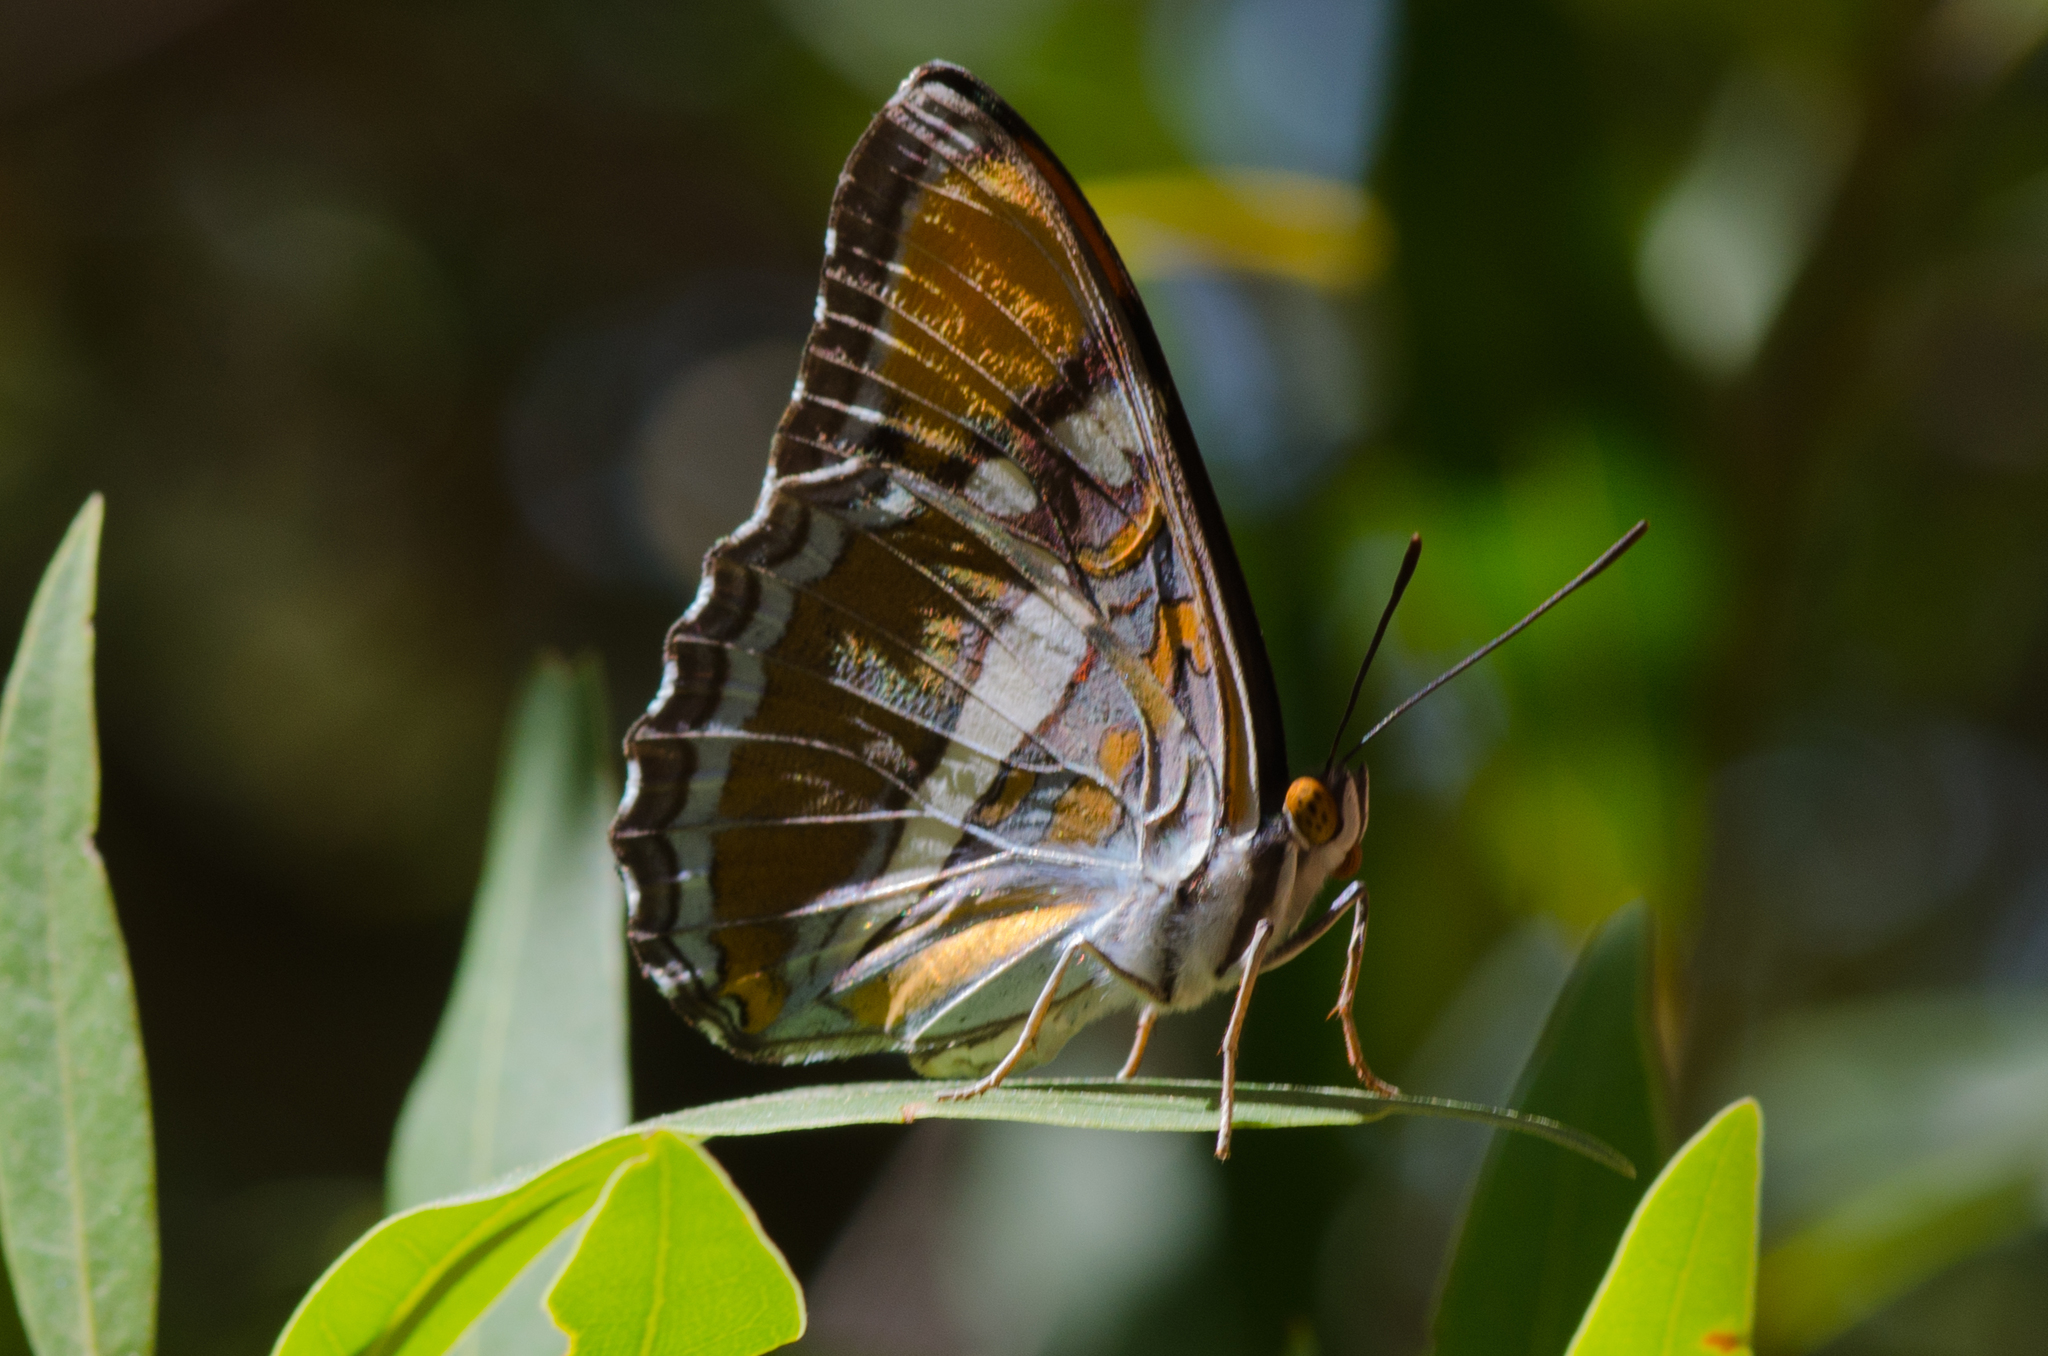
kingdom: Animalia
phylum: Arthropoda
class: Insecta
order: Lepidoptera
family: Nymphalidae
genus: Limenitis
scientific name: Limenitis bredowii
